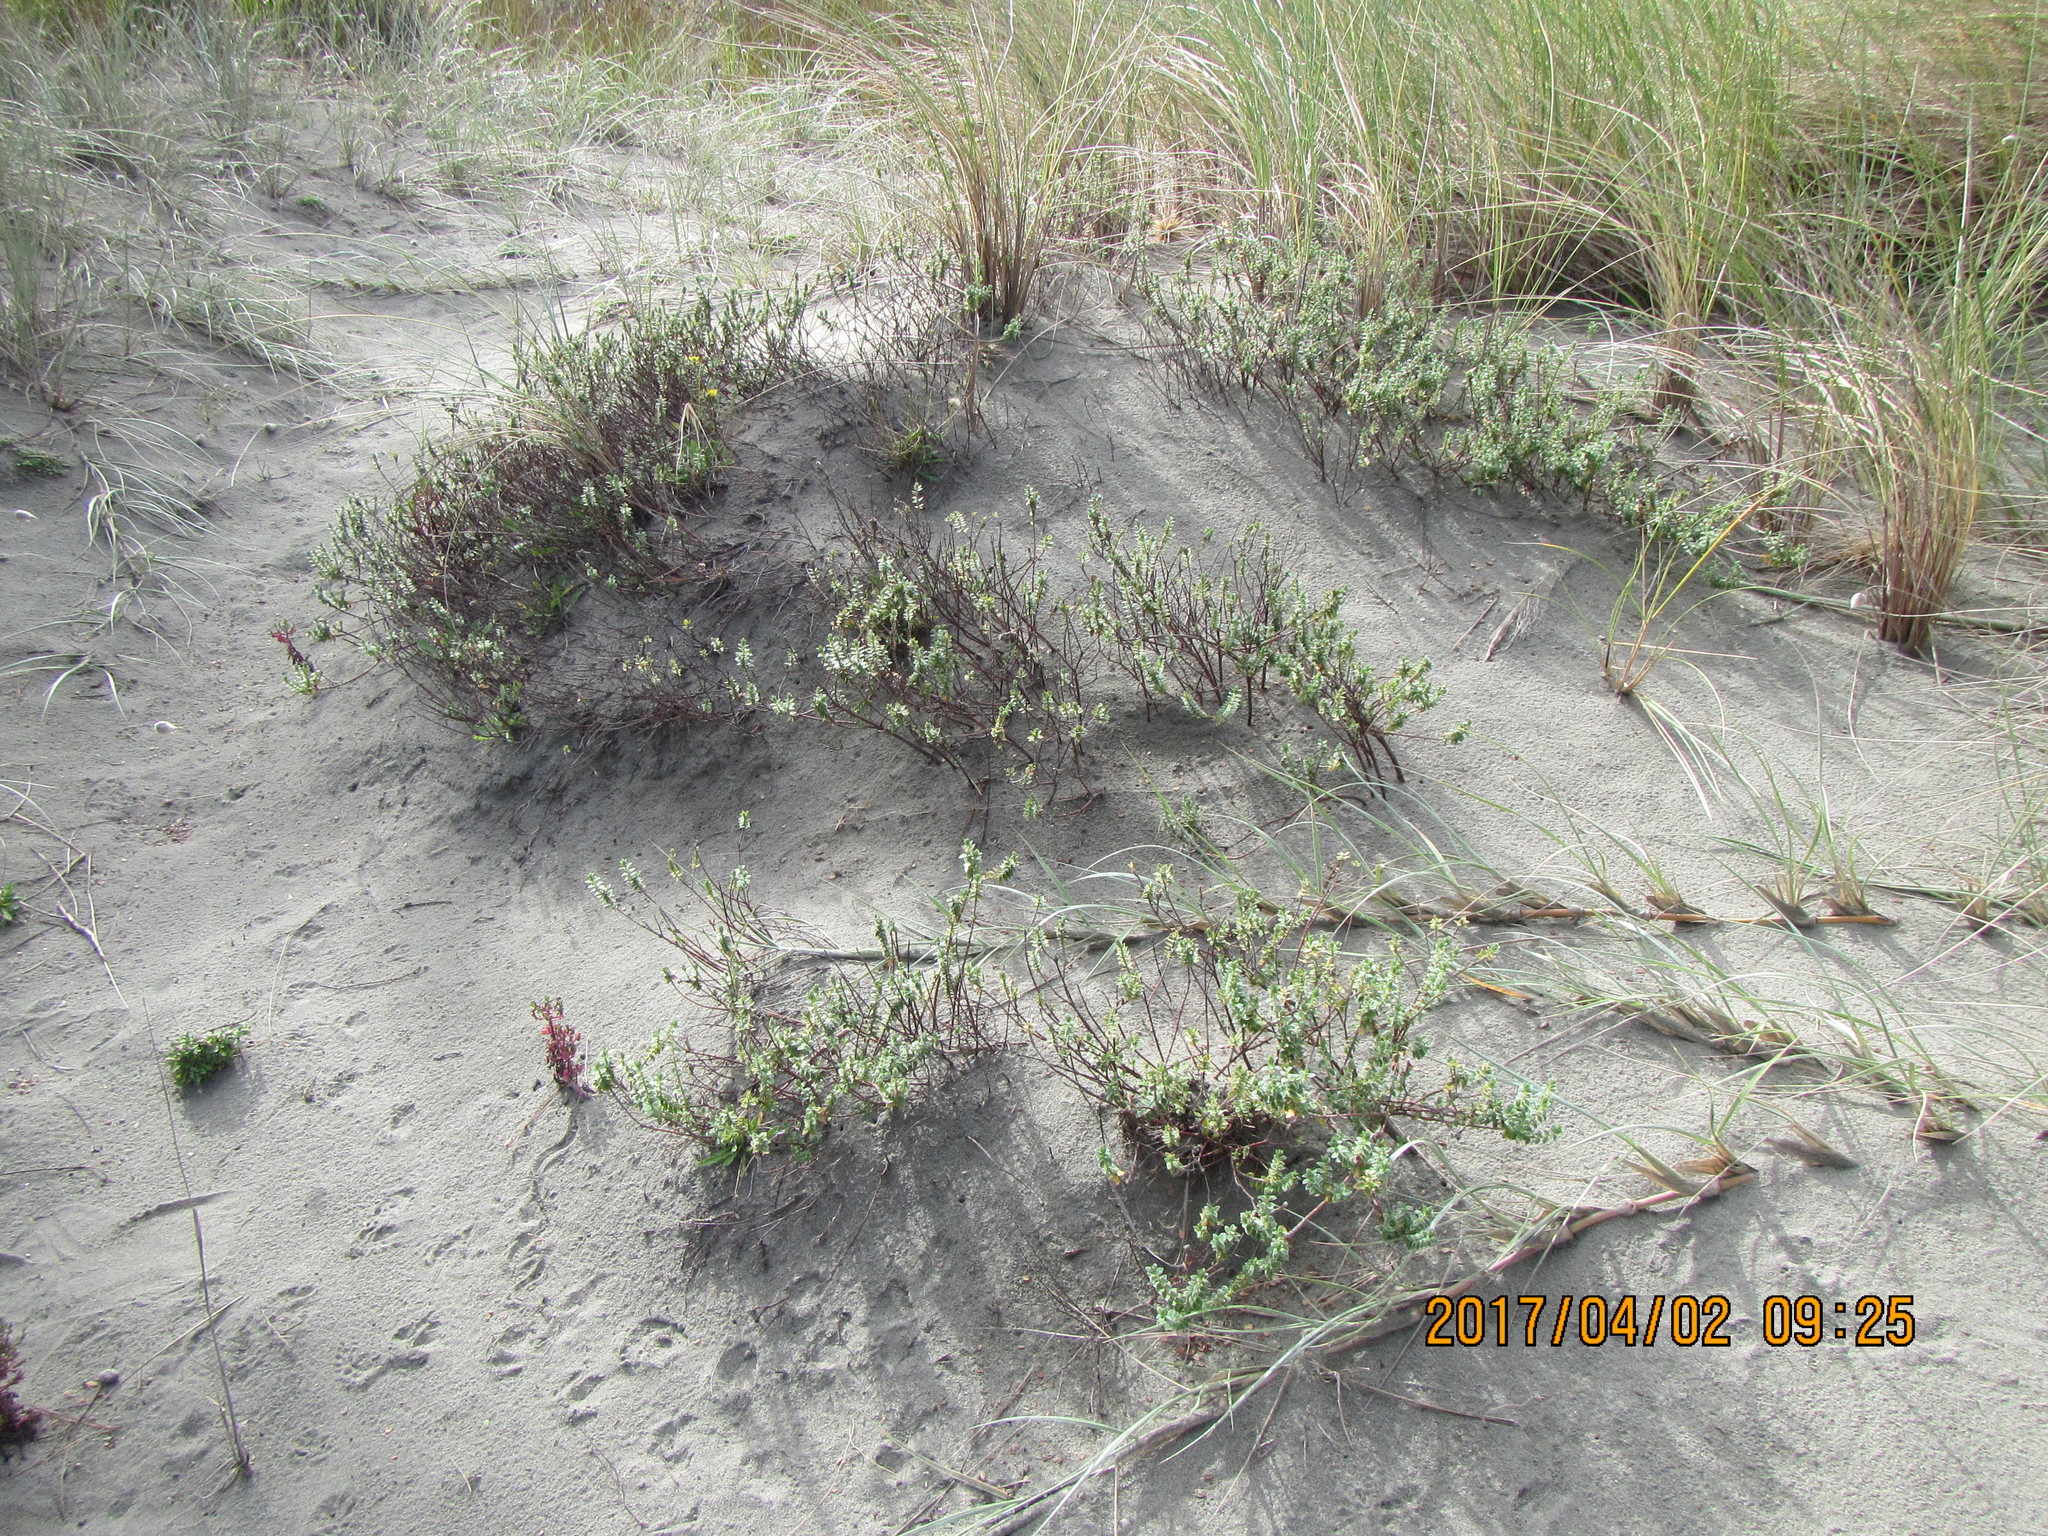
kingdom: Plantae
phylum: Tracheophyta
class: Magnoliopsida
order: Malvales
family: Thymelaeaceae
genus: Pimelea
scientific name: Pimelea villosa
